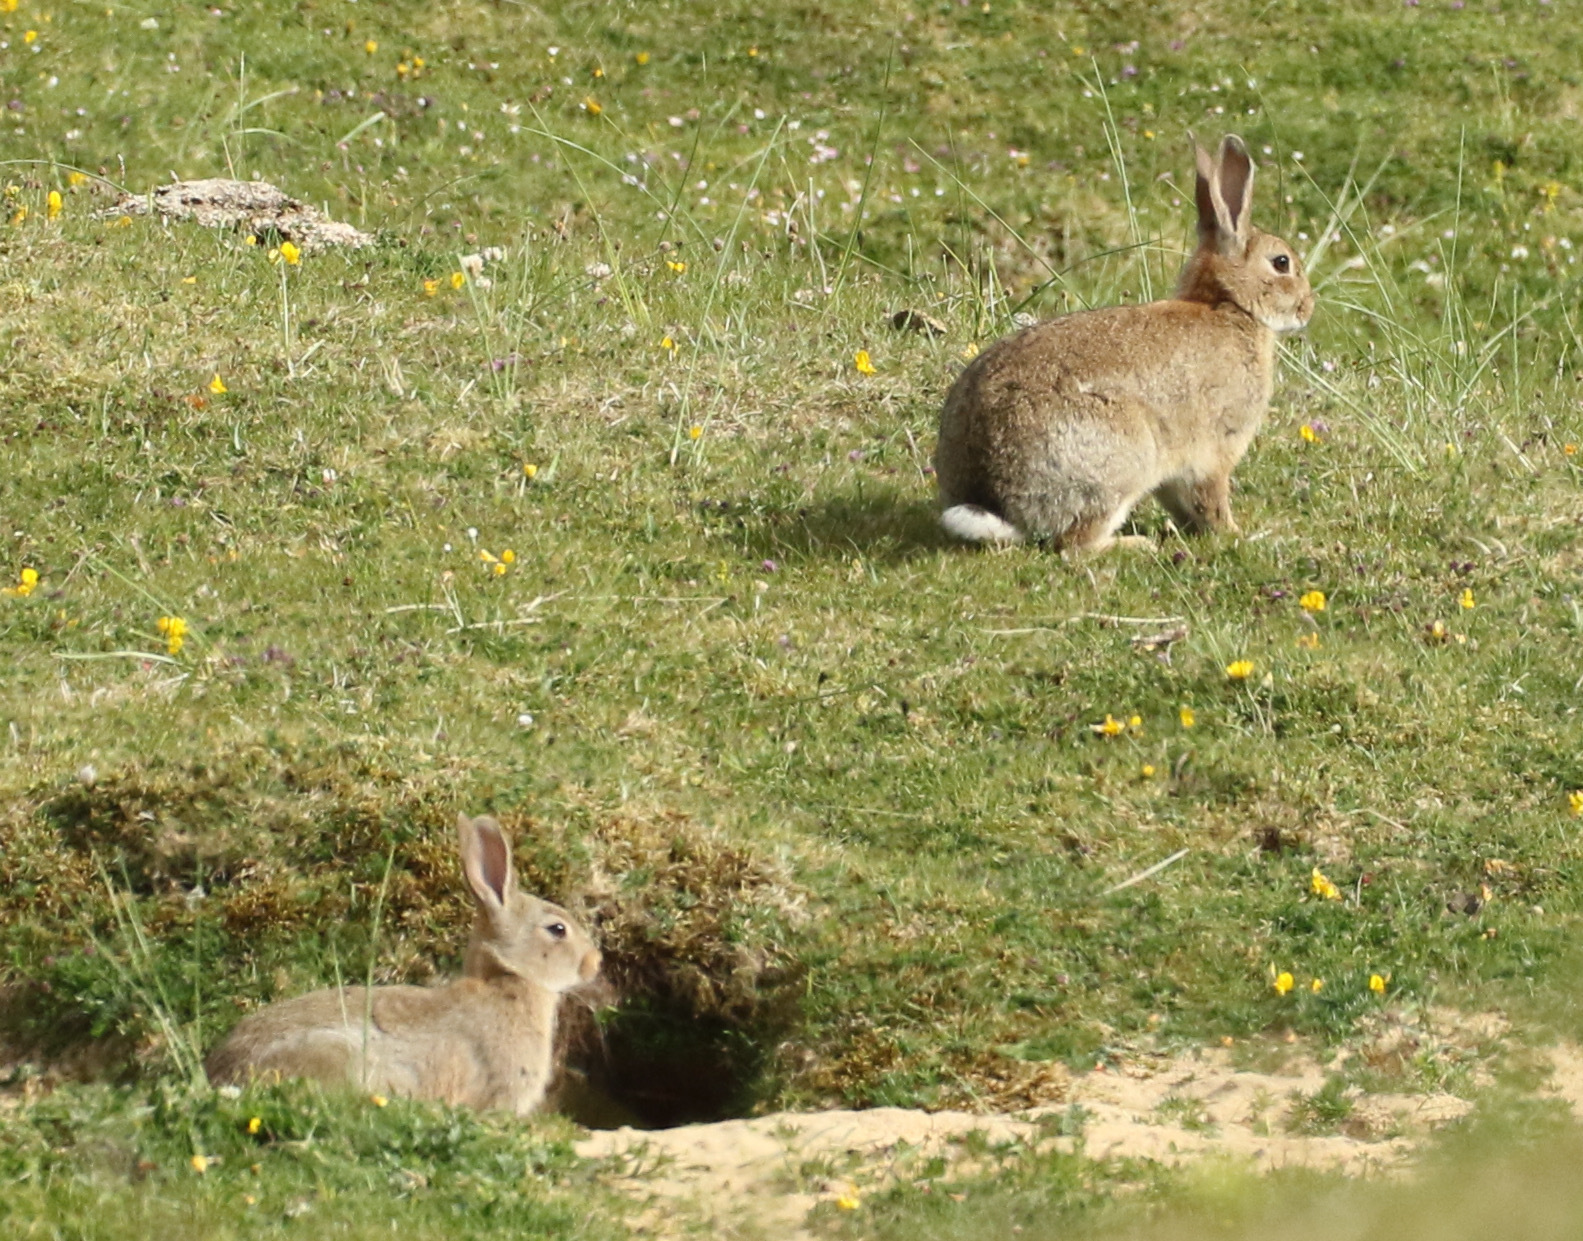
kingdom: Animalia
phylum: Chordata
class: Mammalia
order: Lagomorpha
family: Leporidae
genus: Oryctolagus
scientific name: Oryctolagus cuniculus
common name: European rabbit
